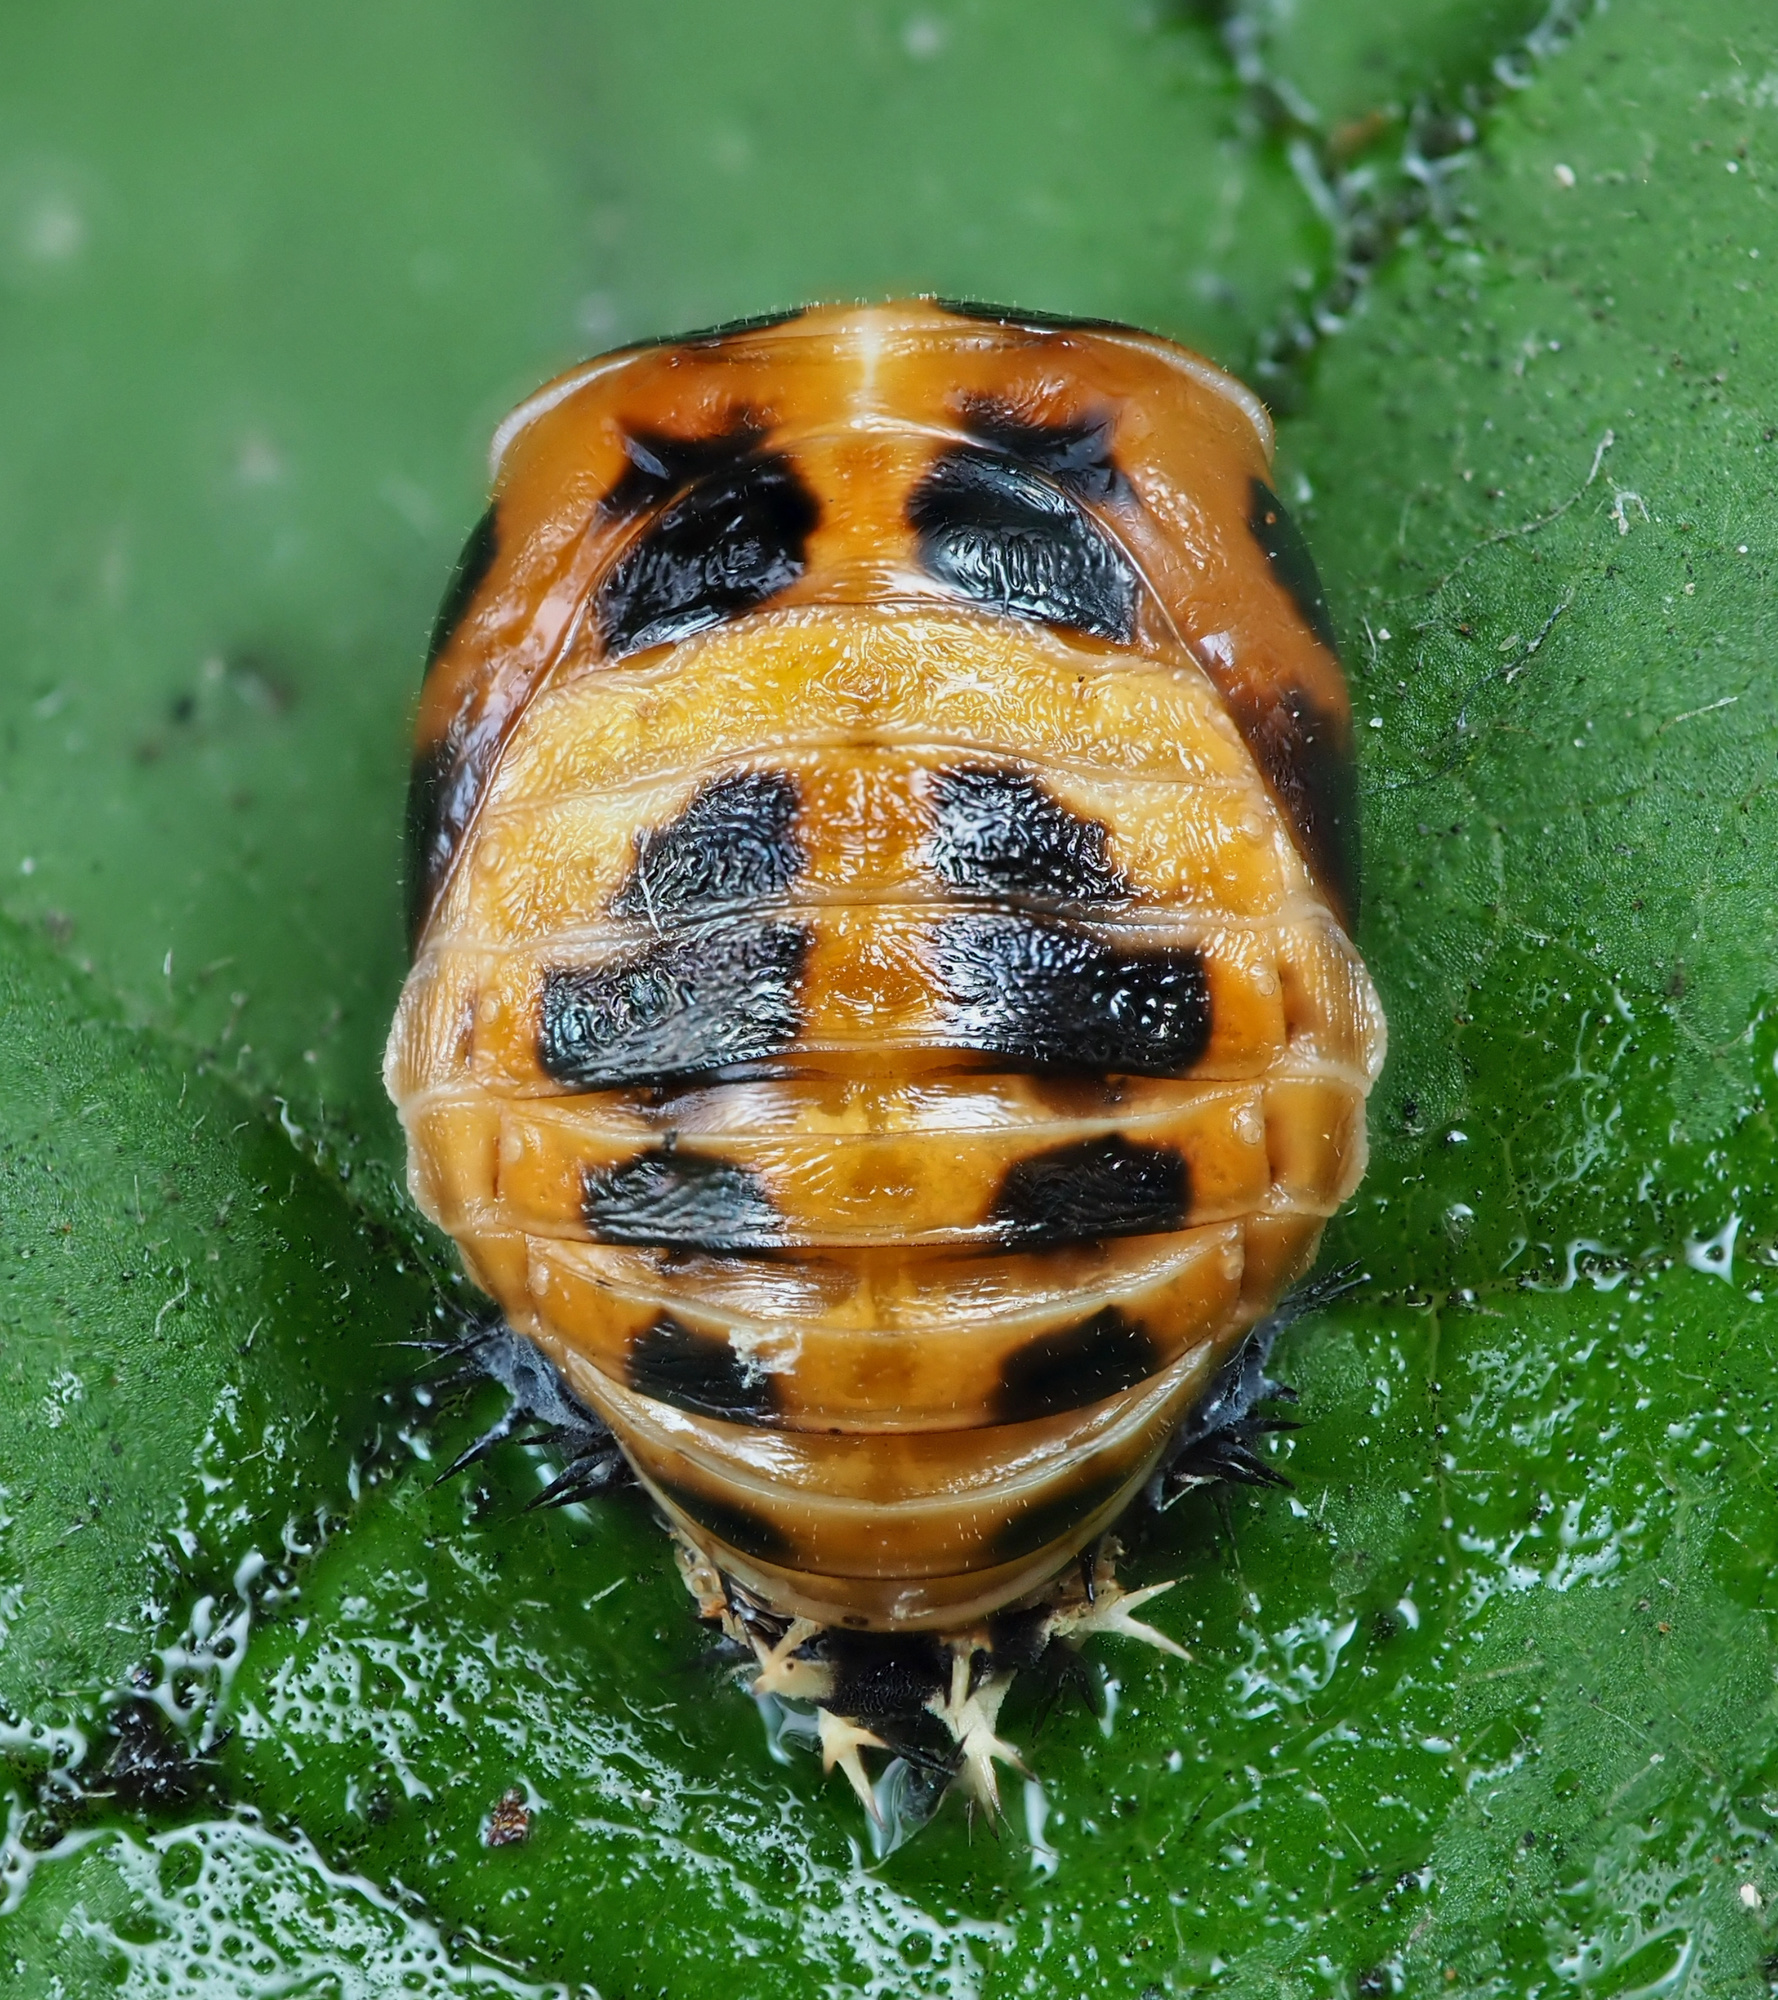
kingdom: Animalia
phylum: Arthropoda
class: Insecta
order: Coleoptera
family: Coccinellidae
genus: Harmonia
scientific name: Harmonia axyridis
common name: Harlequin ladybird
